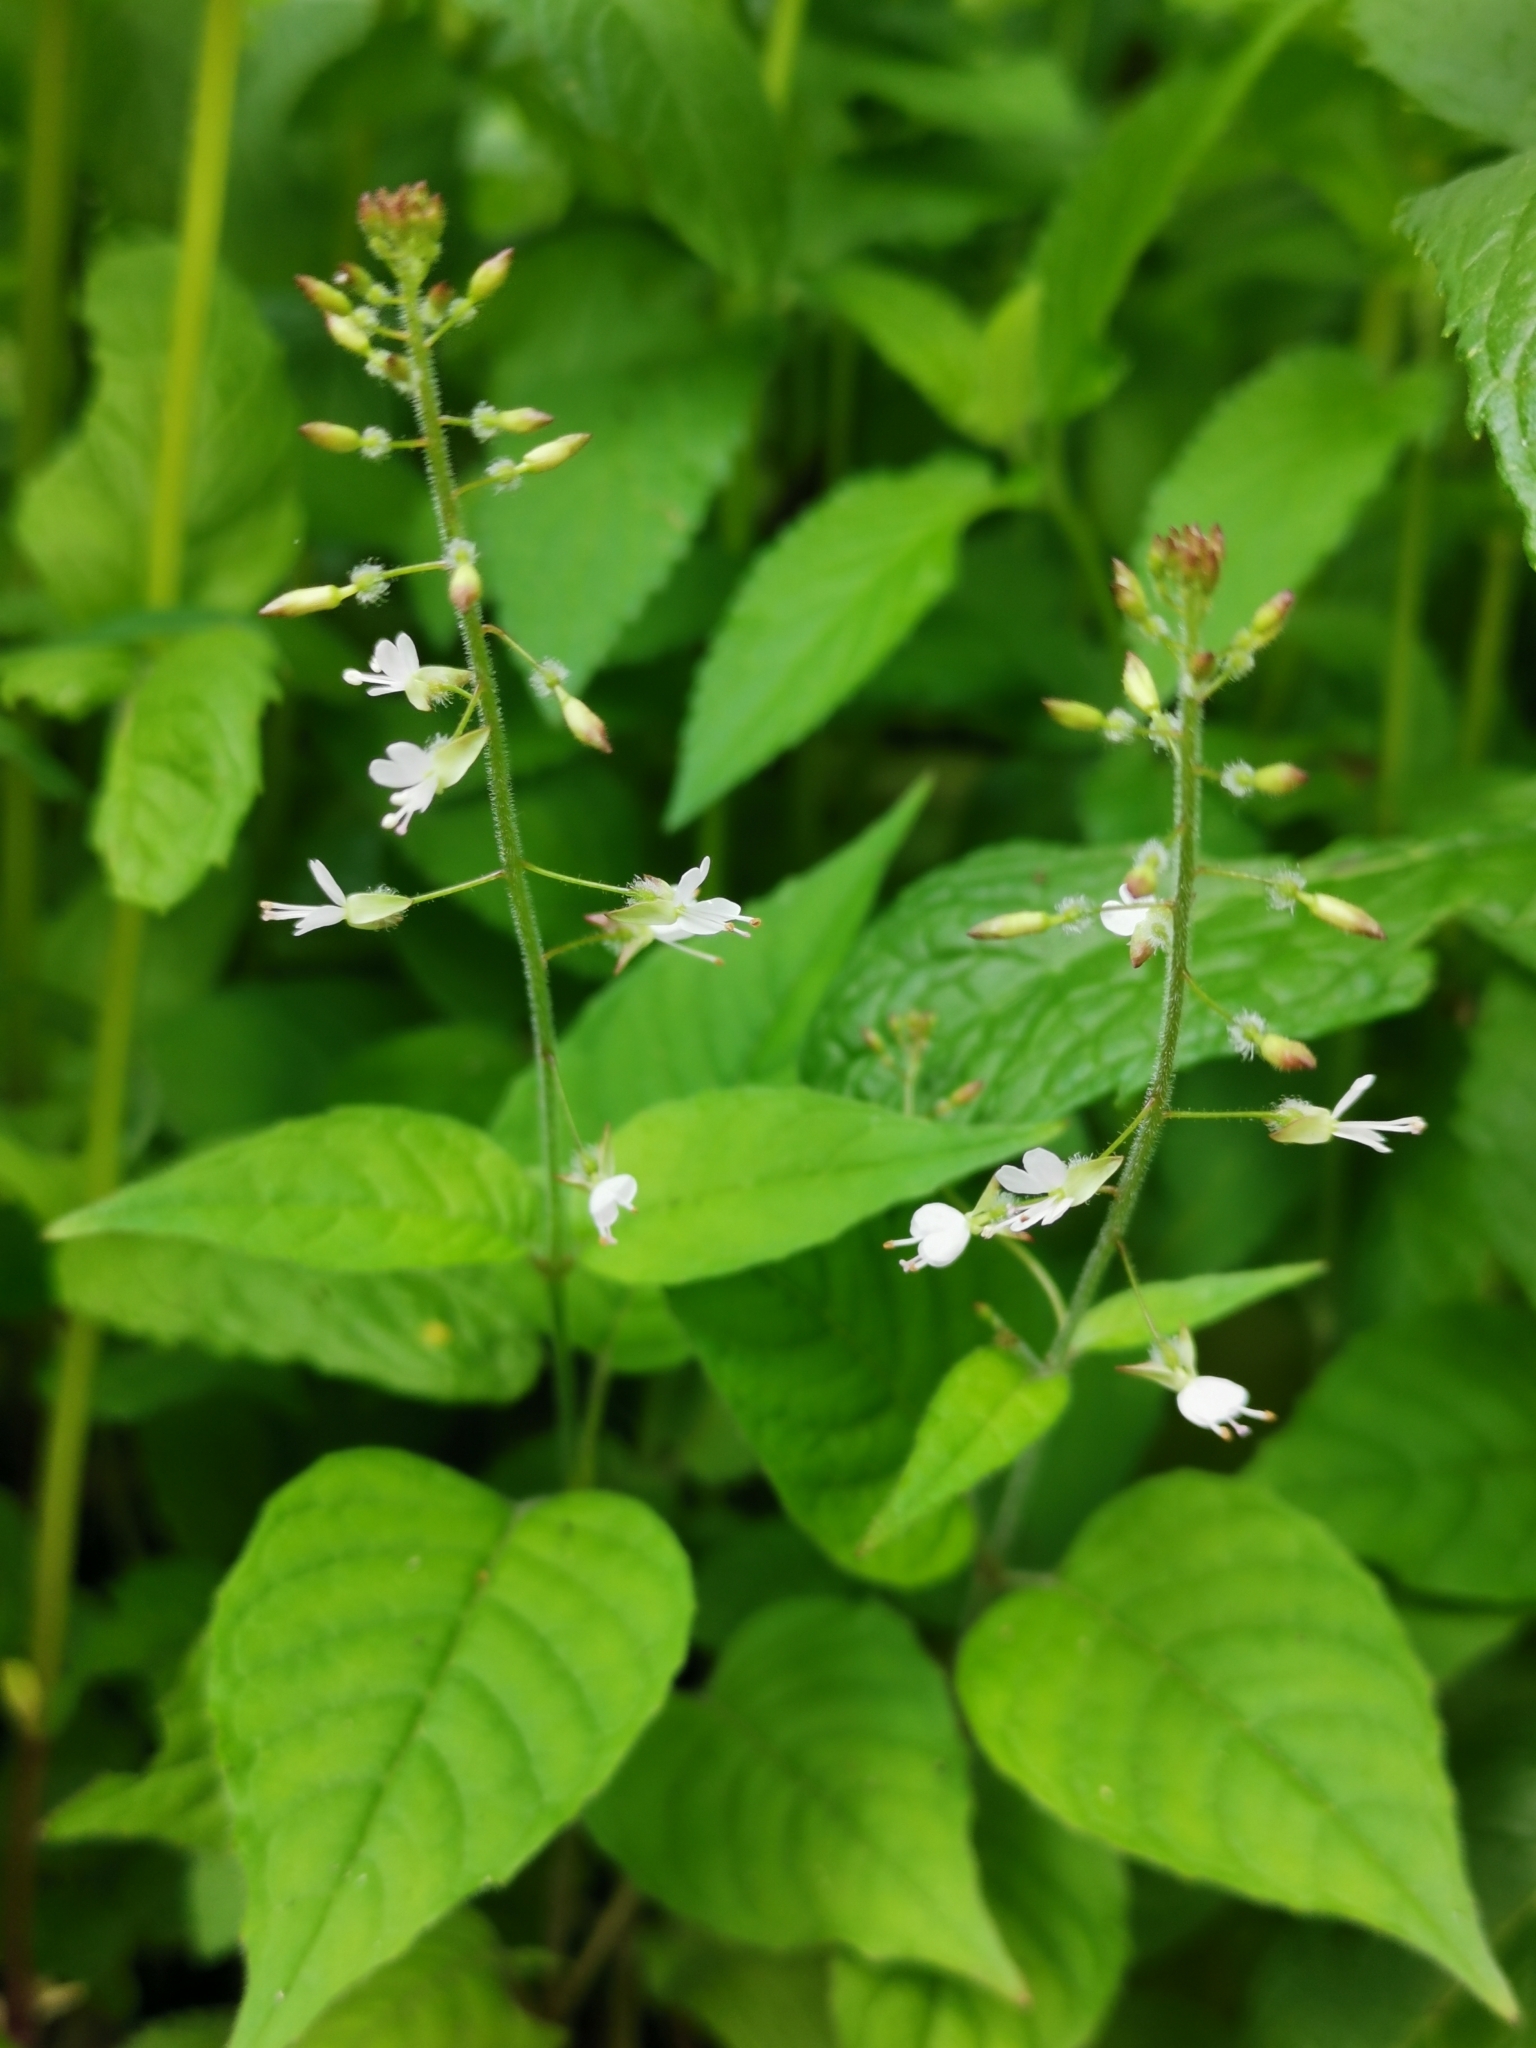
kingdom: Plantae
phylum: Tracheophyta
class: Magnoliopsida
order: Myrtales
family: Onagraceae
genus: Circaea
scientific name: Circaea lutetiana
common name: Enchanter's-nightshade
